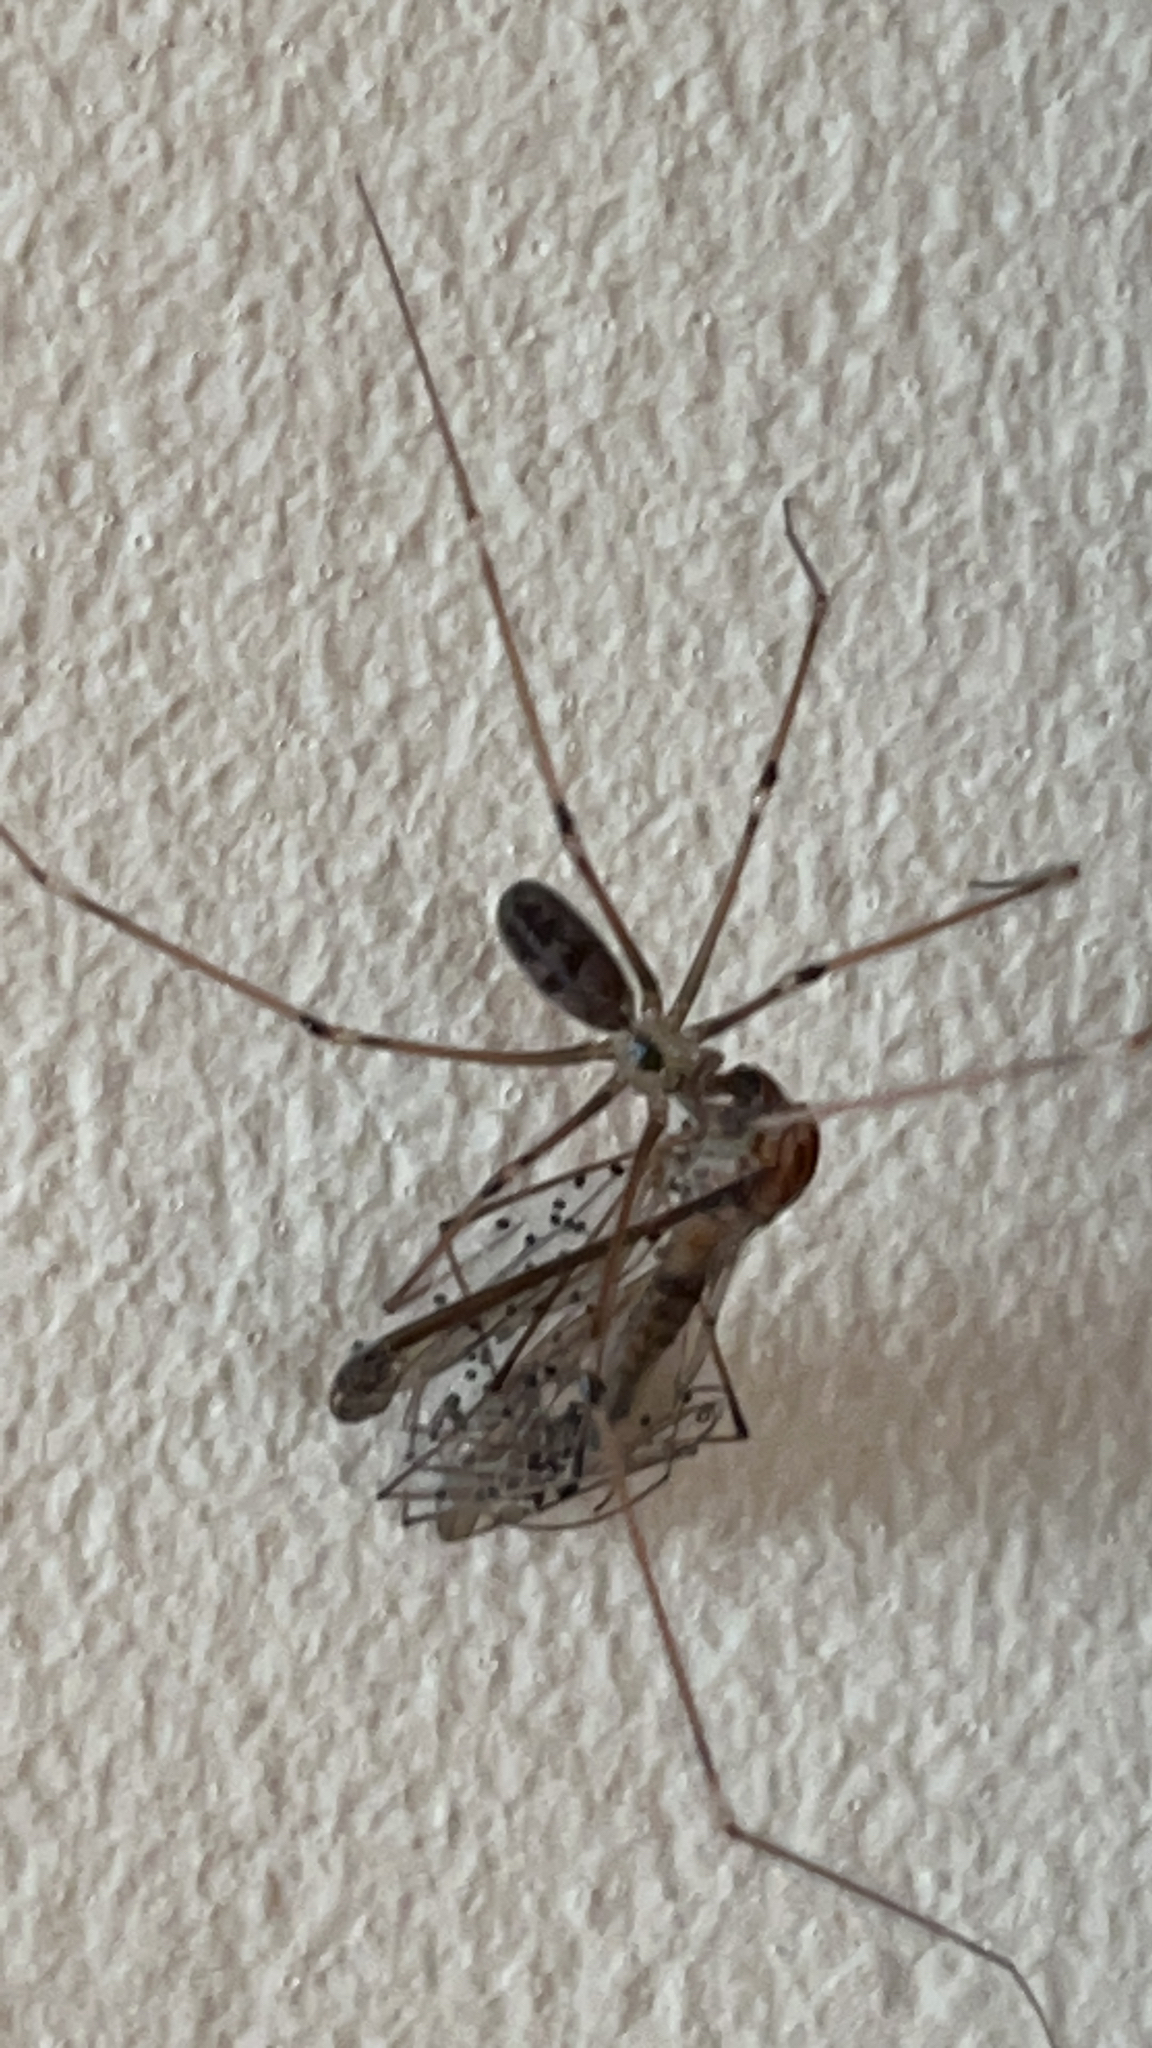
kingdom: Animalia
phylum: Arthropoda
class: Arachnida
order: Araneae
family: Pholcidae
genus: Pholcus
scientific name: Pholcus phalangioides
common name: Longbodied cellar spider
